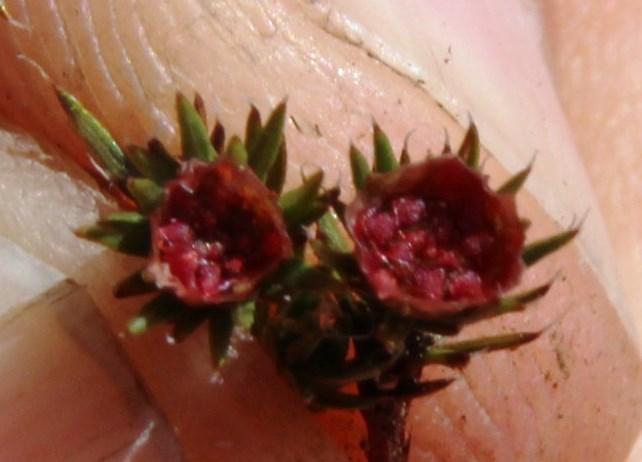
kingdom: Plantae
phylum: Bryophyta
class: Polytrichopsida
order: Polytrichales
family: Polytrichaceae
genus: Polytrichum
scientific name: Polytrichum piliferum
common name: Bristly haircap
